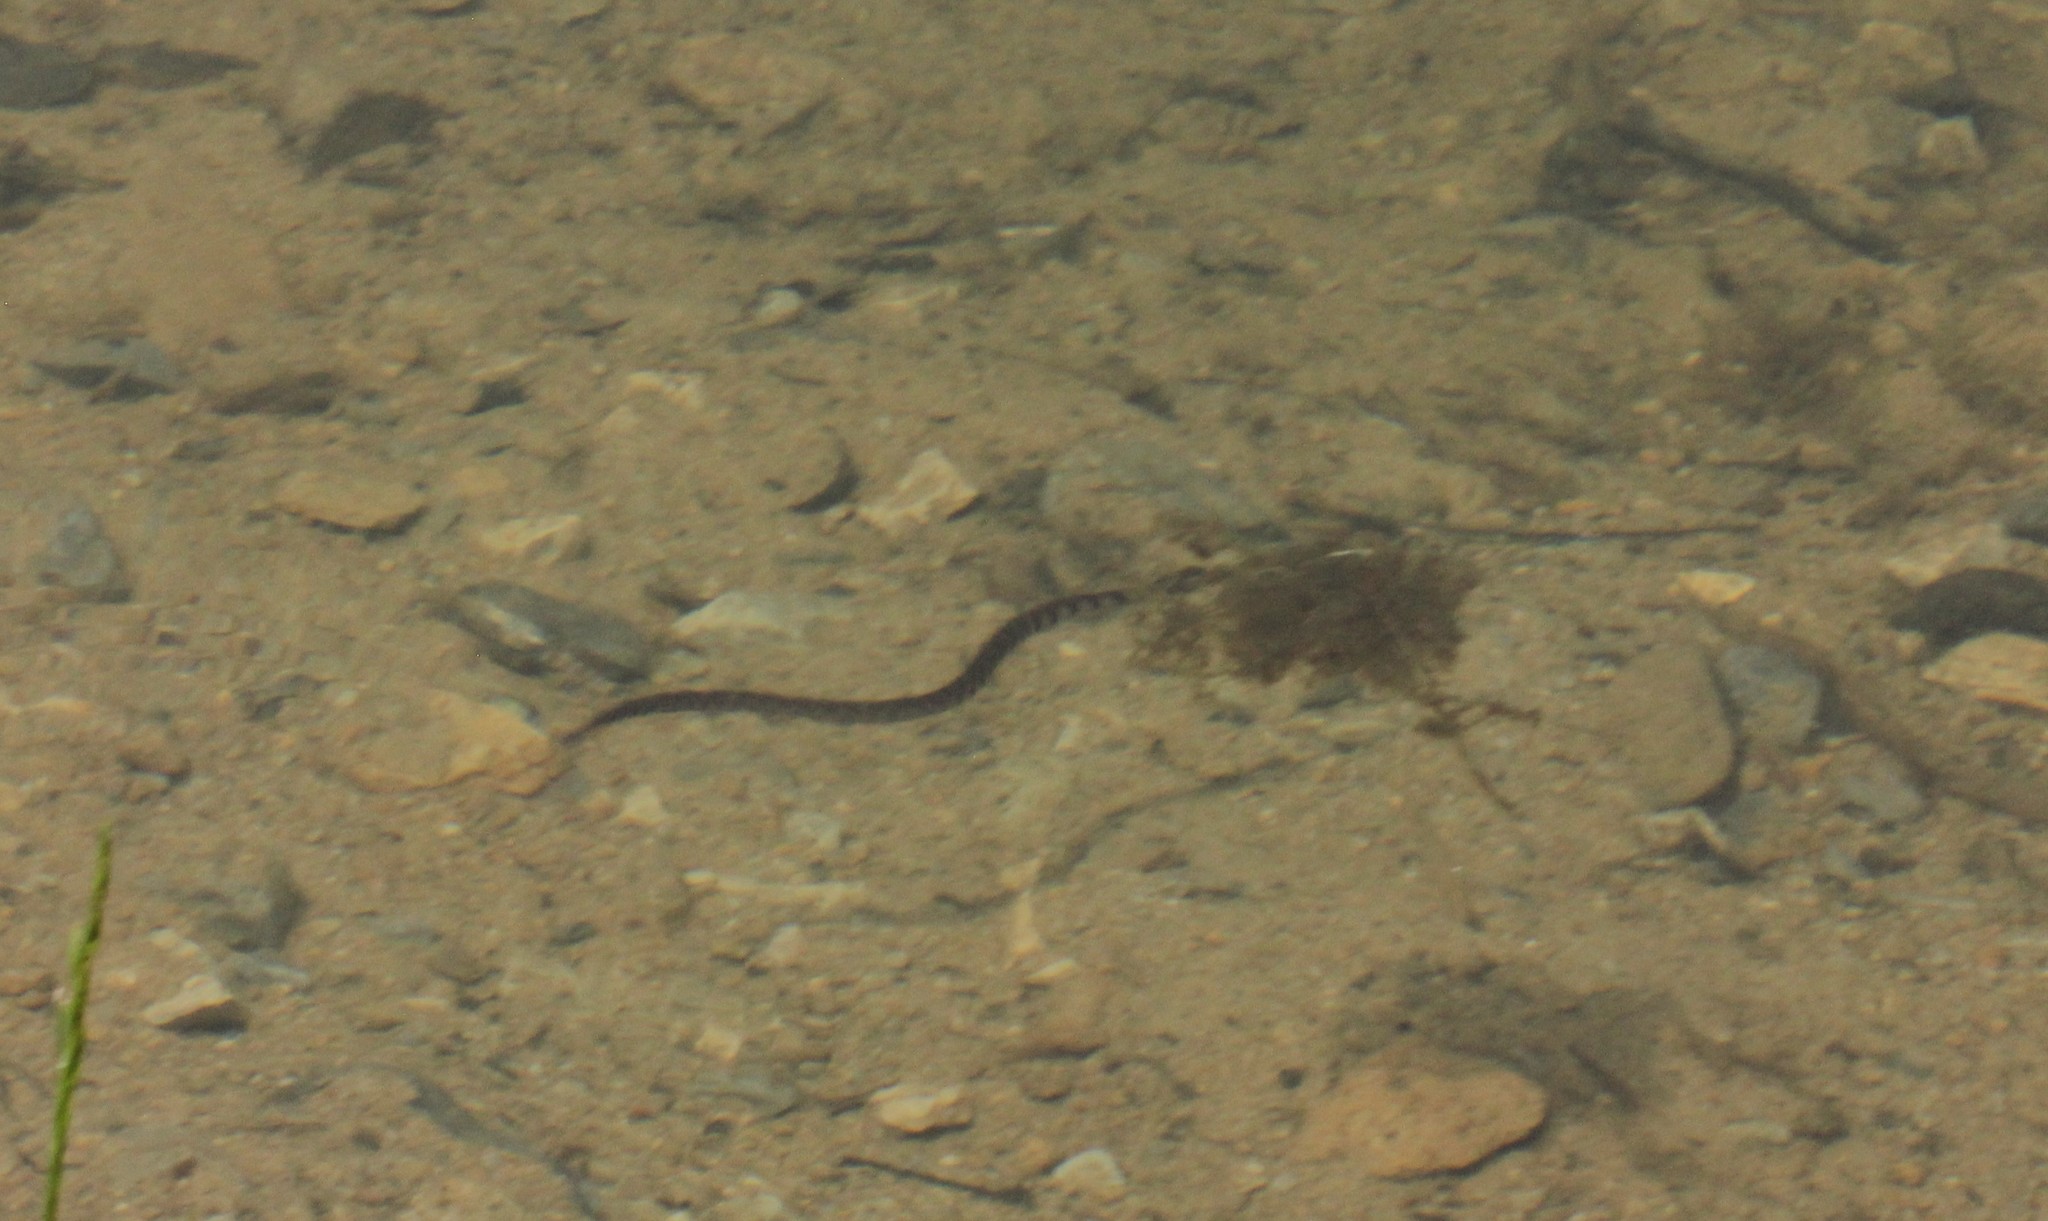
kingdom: Animalia
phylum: Chordata
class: Squamata
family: Colubridae
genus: Nerodia
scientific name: Nerodia sipedon
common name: Northern water snake
